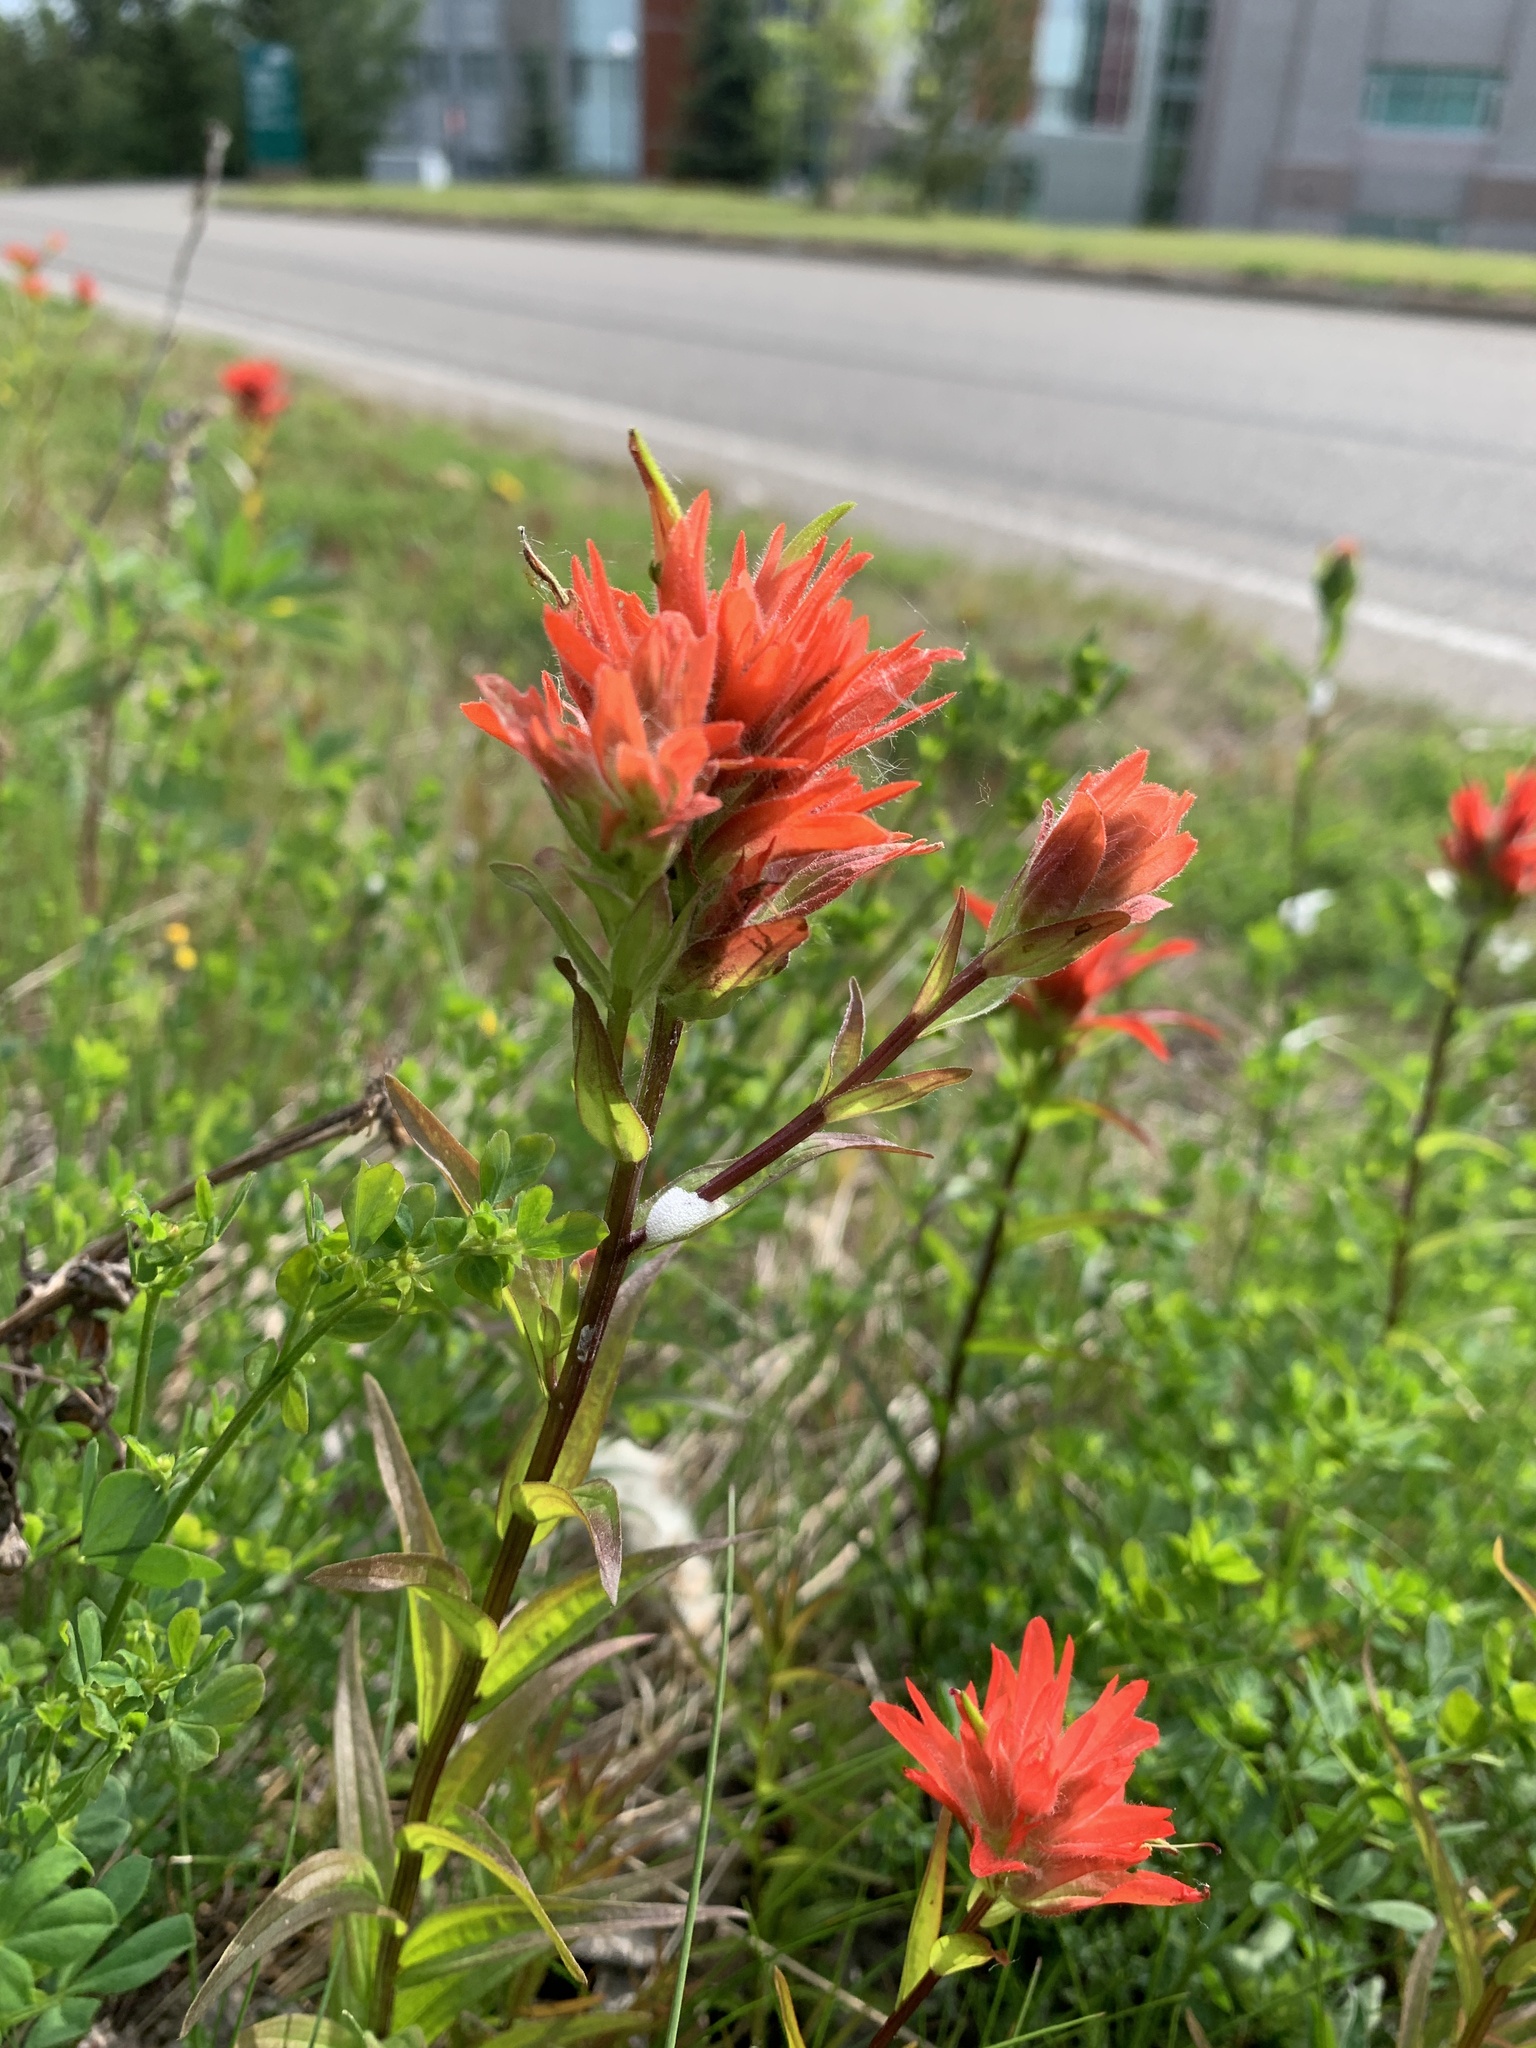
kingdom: Plantae
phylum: Tracheophyta
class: Magnoliopsida
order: Lamiales
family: Orobanchaceae
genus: Castilleja
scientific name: Castilleja miniata
